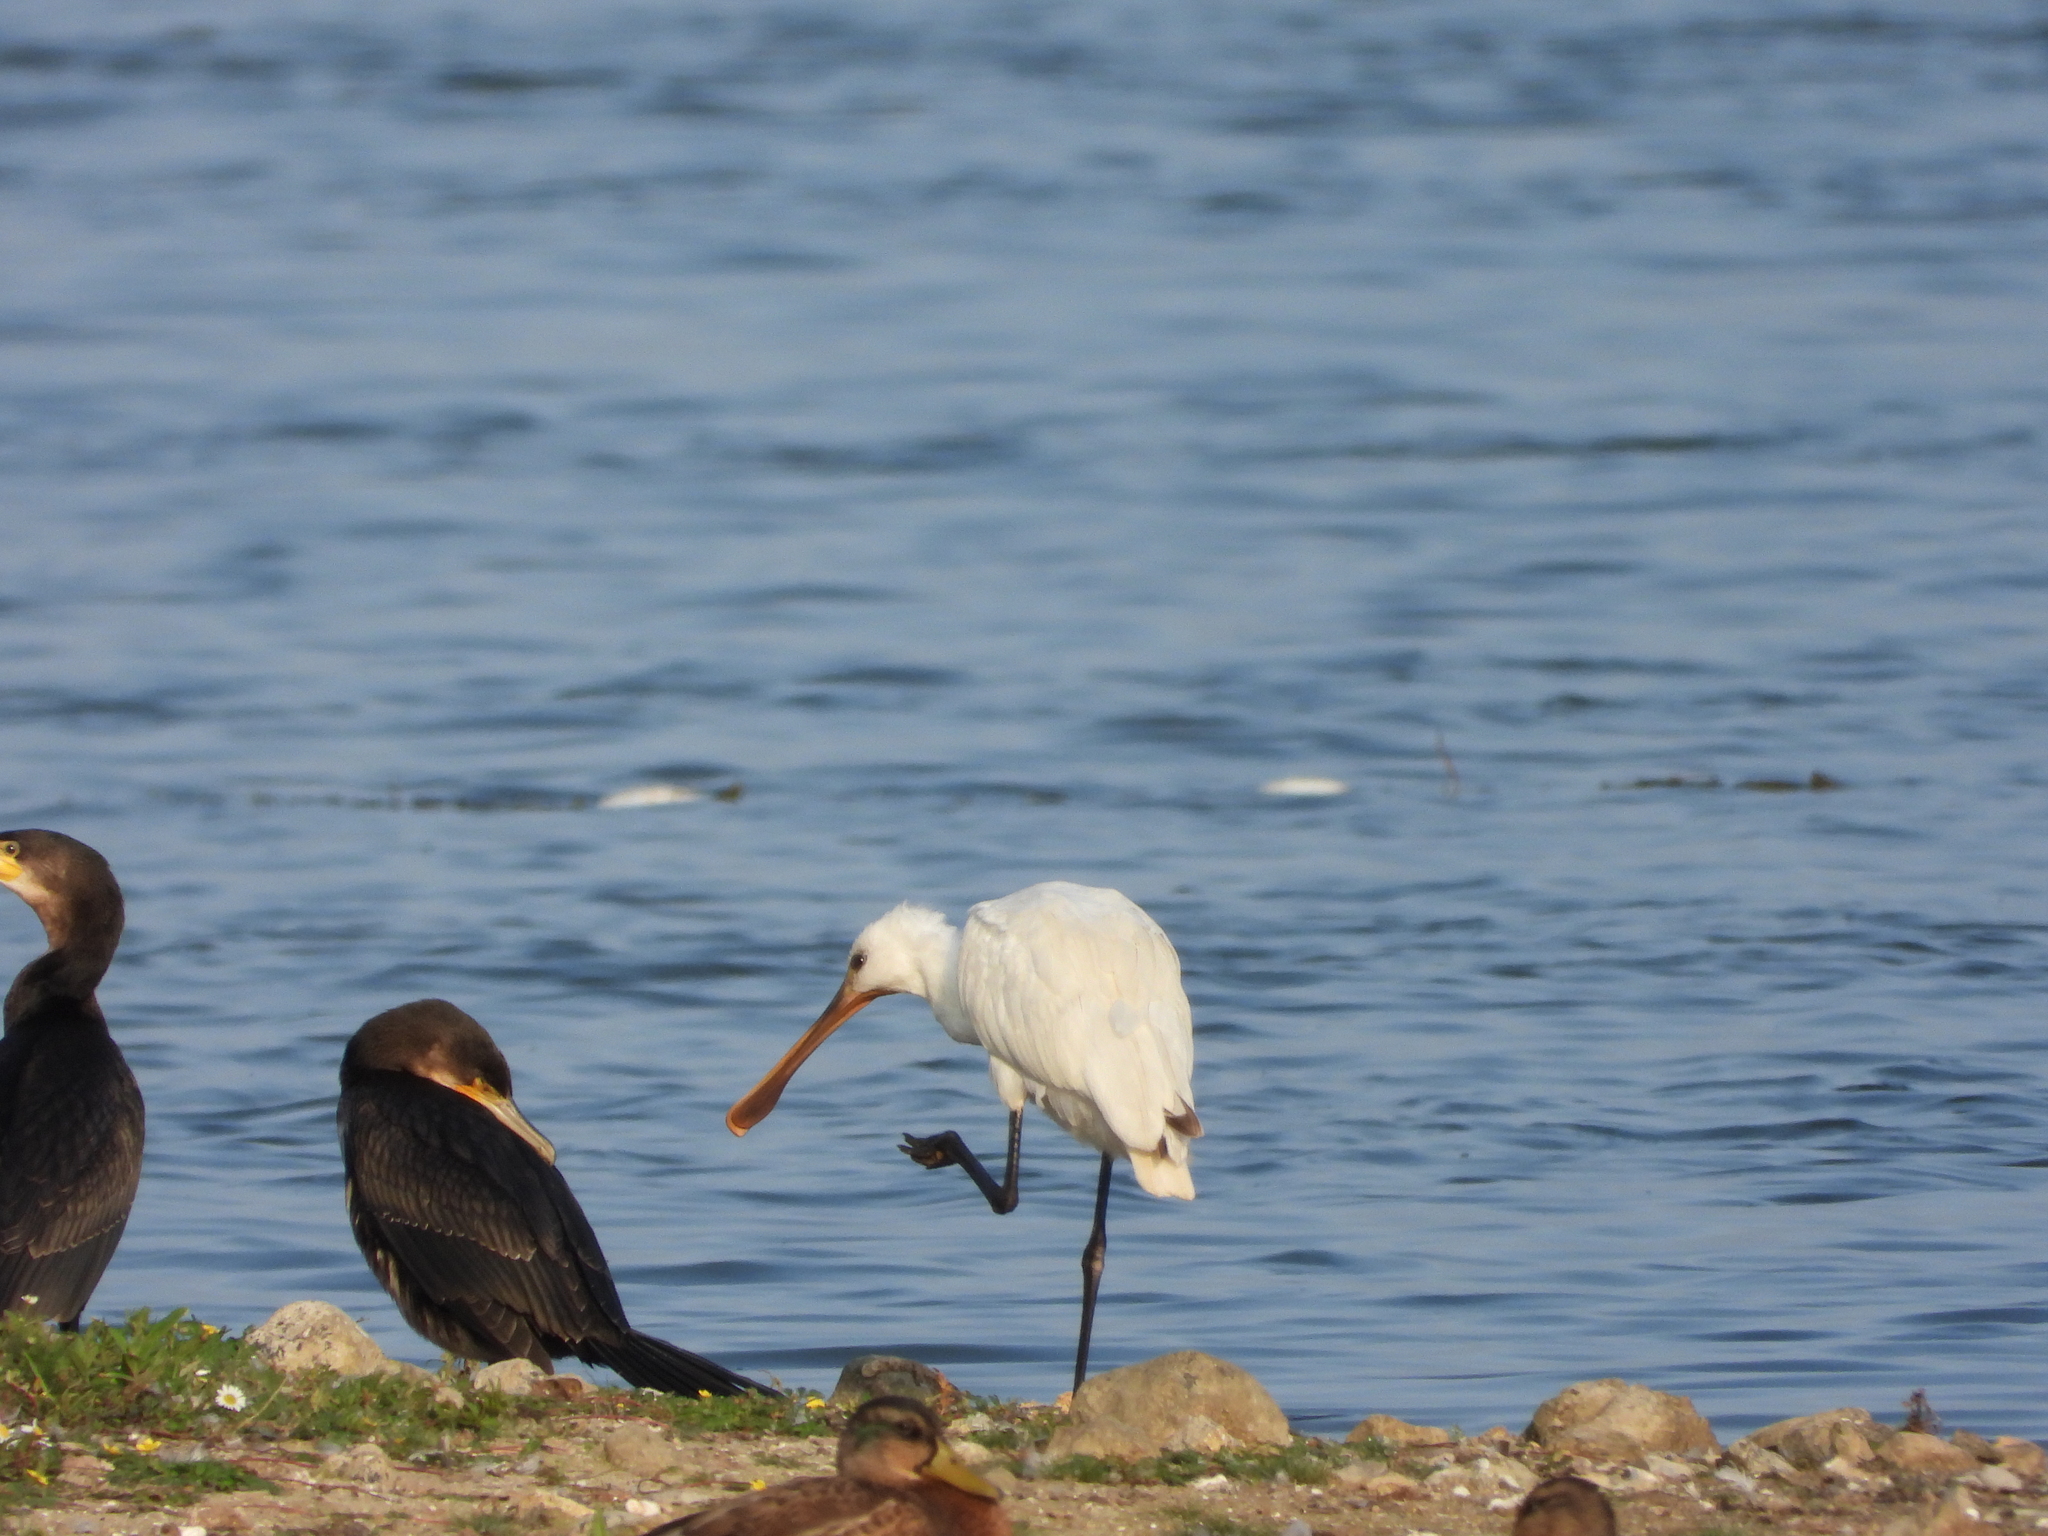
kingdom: Animalia
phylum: Chordata
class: Aves
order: Pelecaniformes
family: Threskiornithidae
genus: Platalea
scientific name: Platalea leucorodia
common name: Eurasian spoonbill
